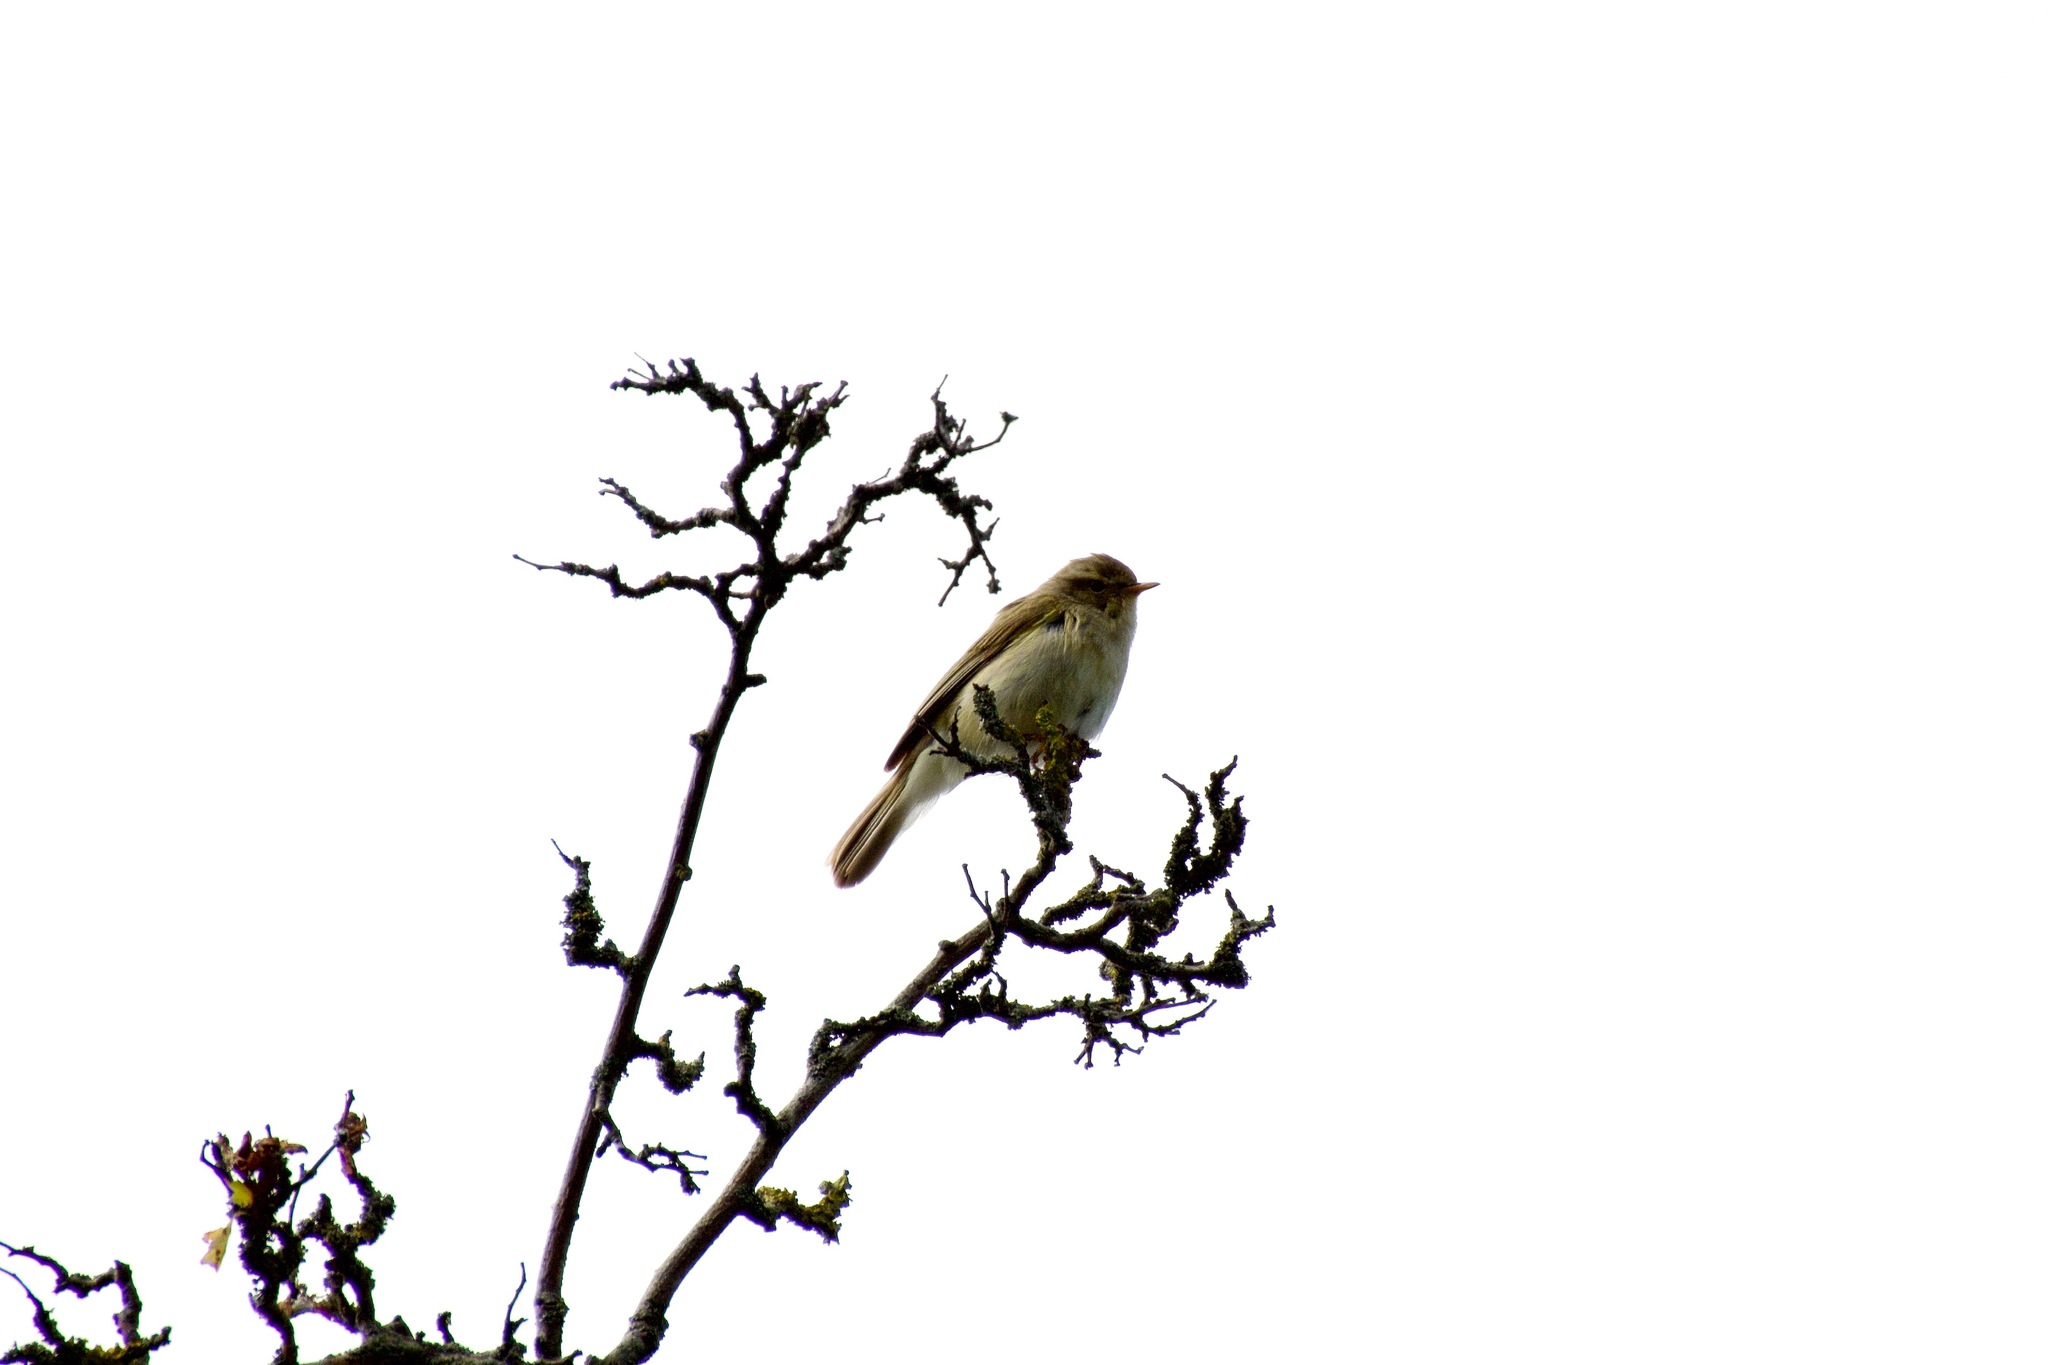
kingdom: Animalia
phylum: Chordata
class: Aves
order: Passeriformes
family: Phylloscopidae
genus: Phylloscopus
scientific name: Phylloscopus trochilus
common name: Willow warbler
